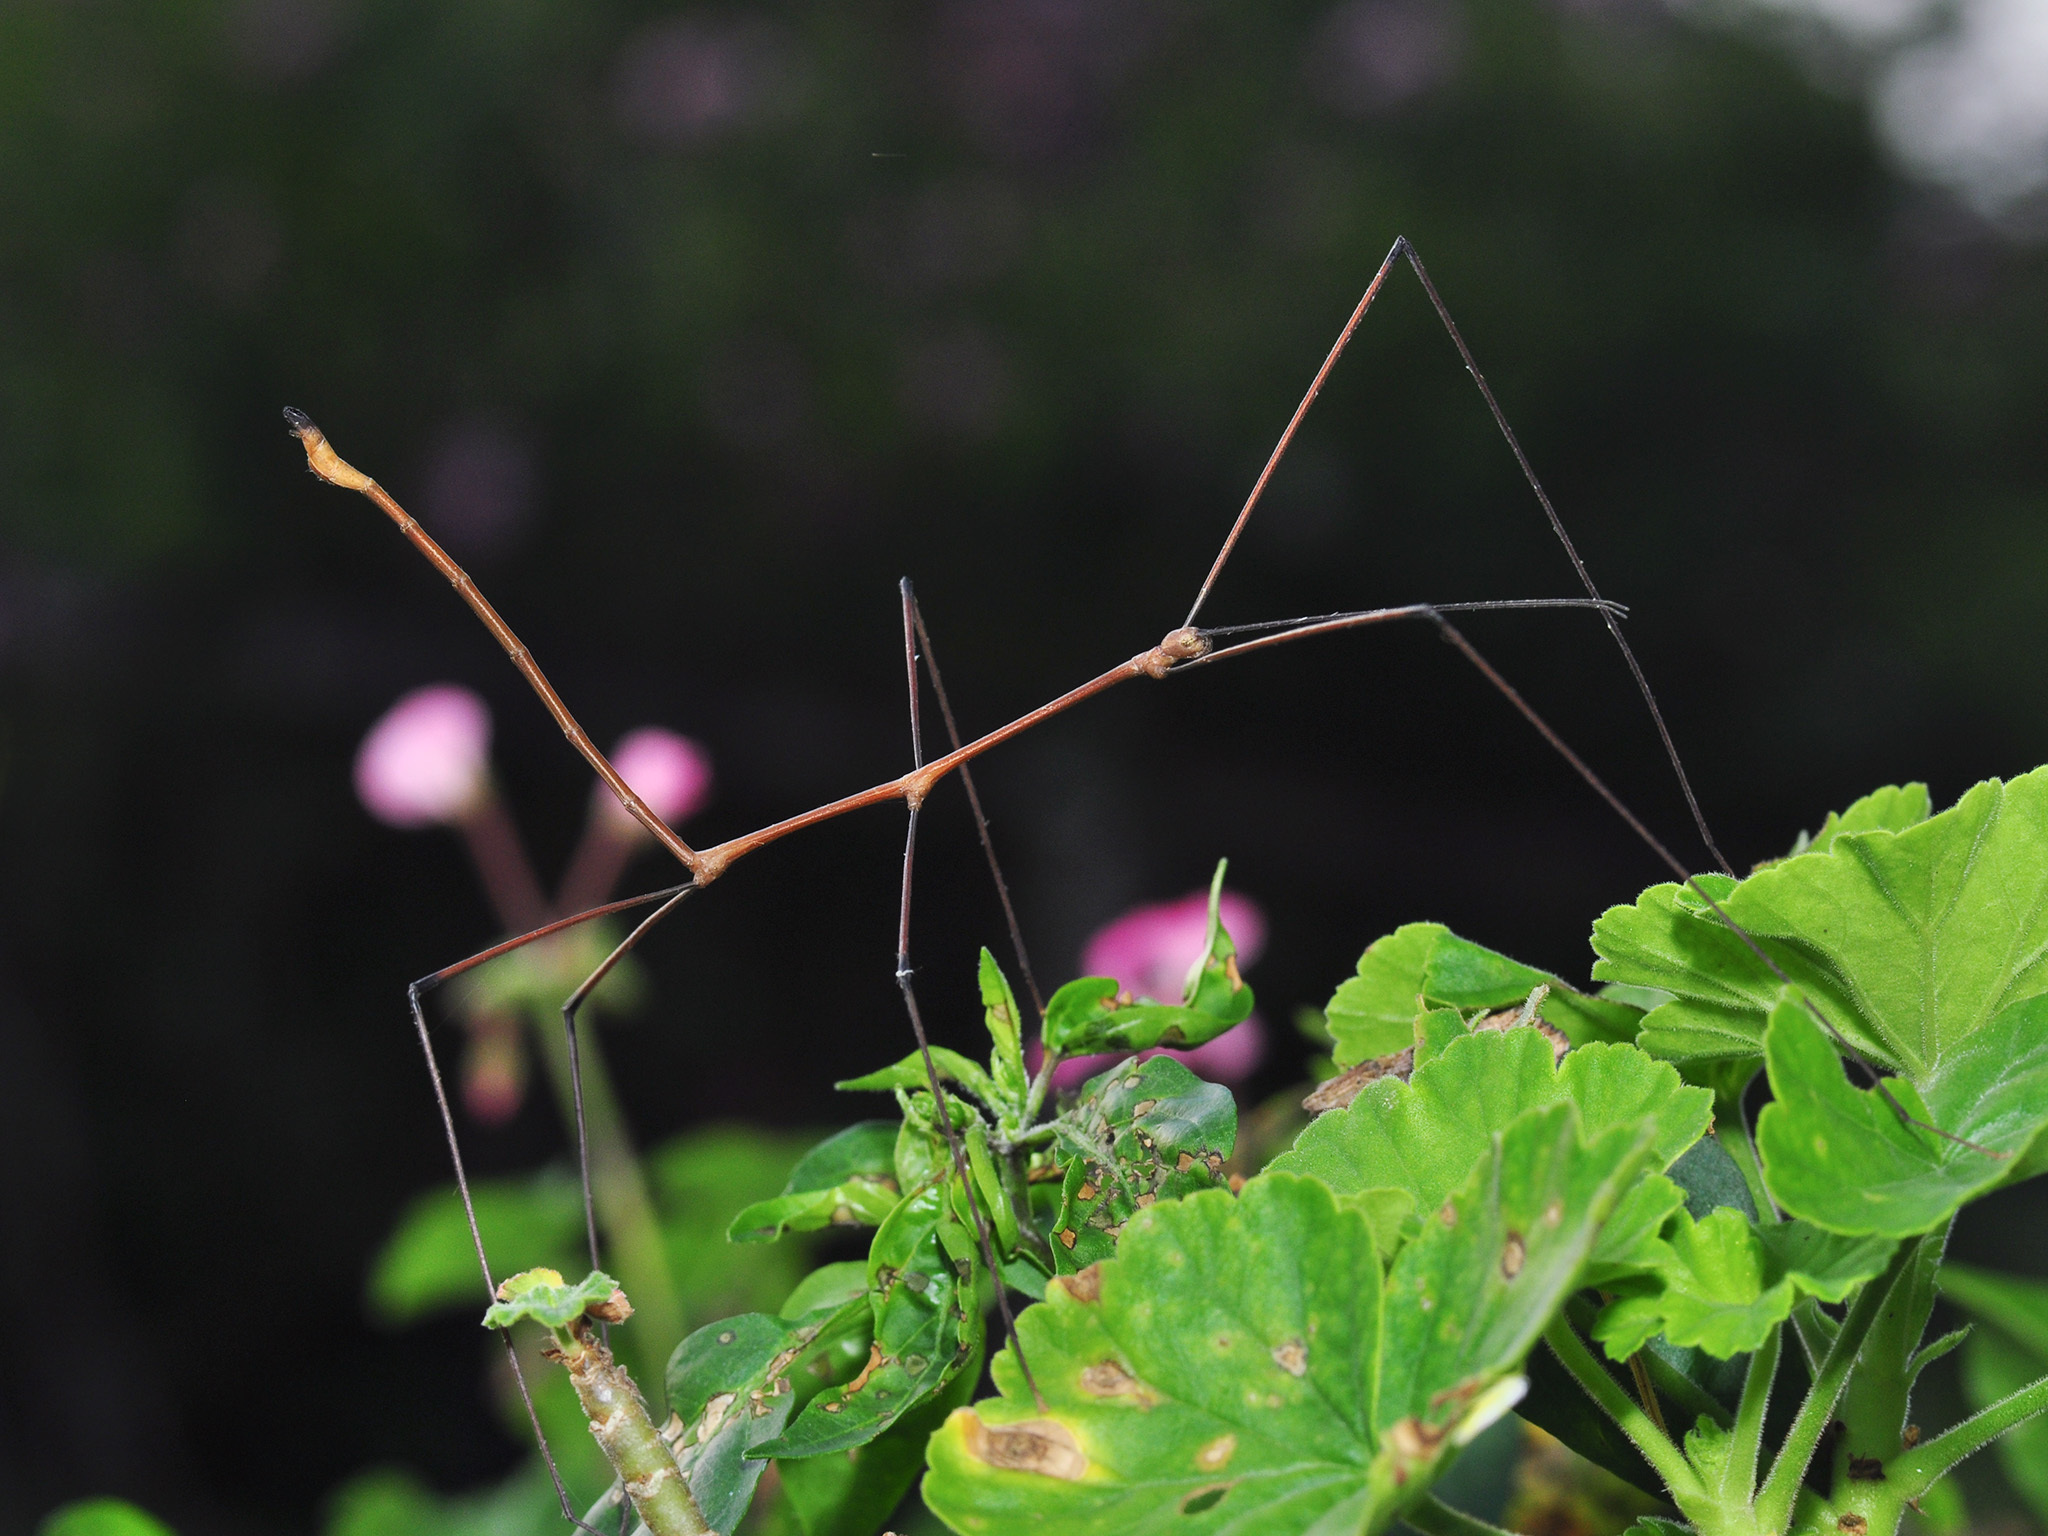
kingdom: Animalia
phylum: Arthropoda
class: Insecta
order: Phasmida
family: Phasmatidae
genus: Ramulus
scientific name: Ramulus nematodes
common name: Great thin stick insect
